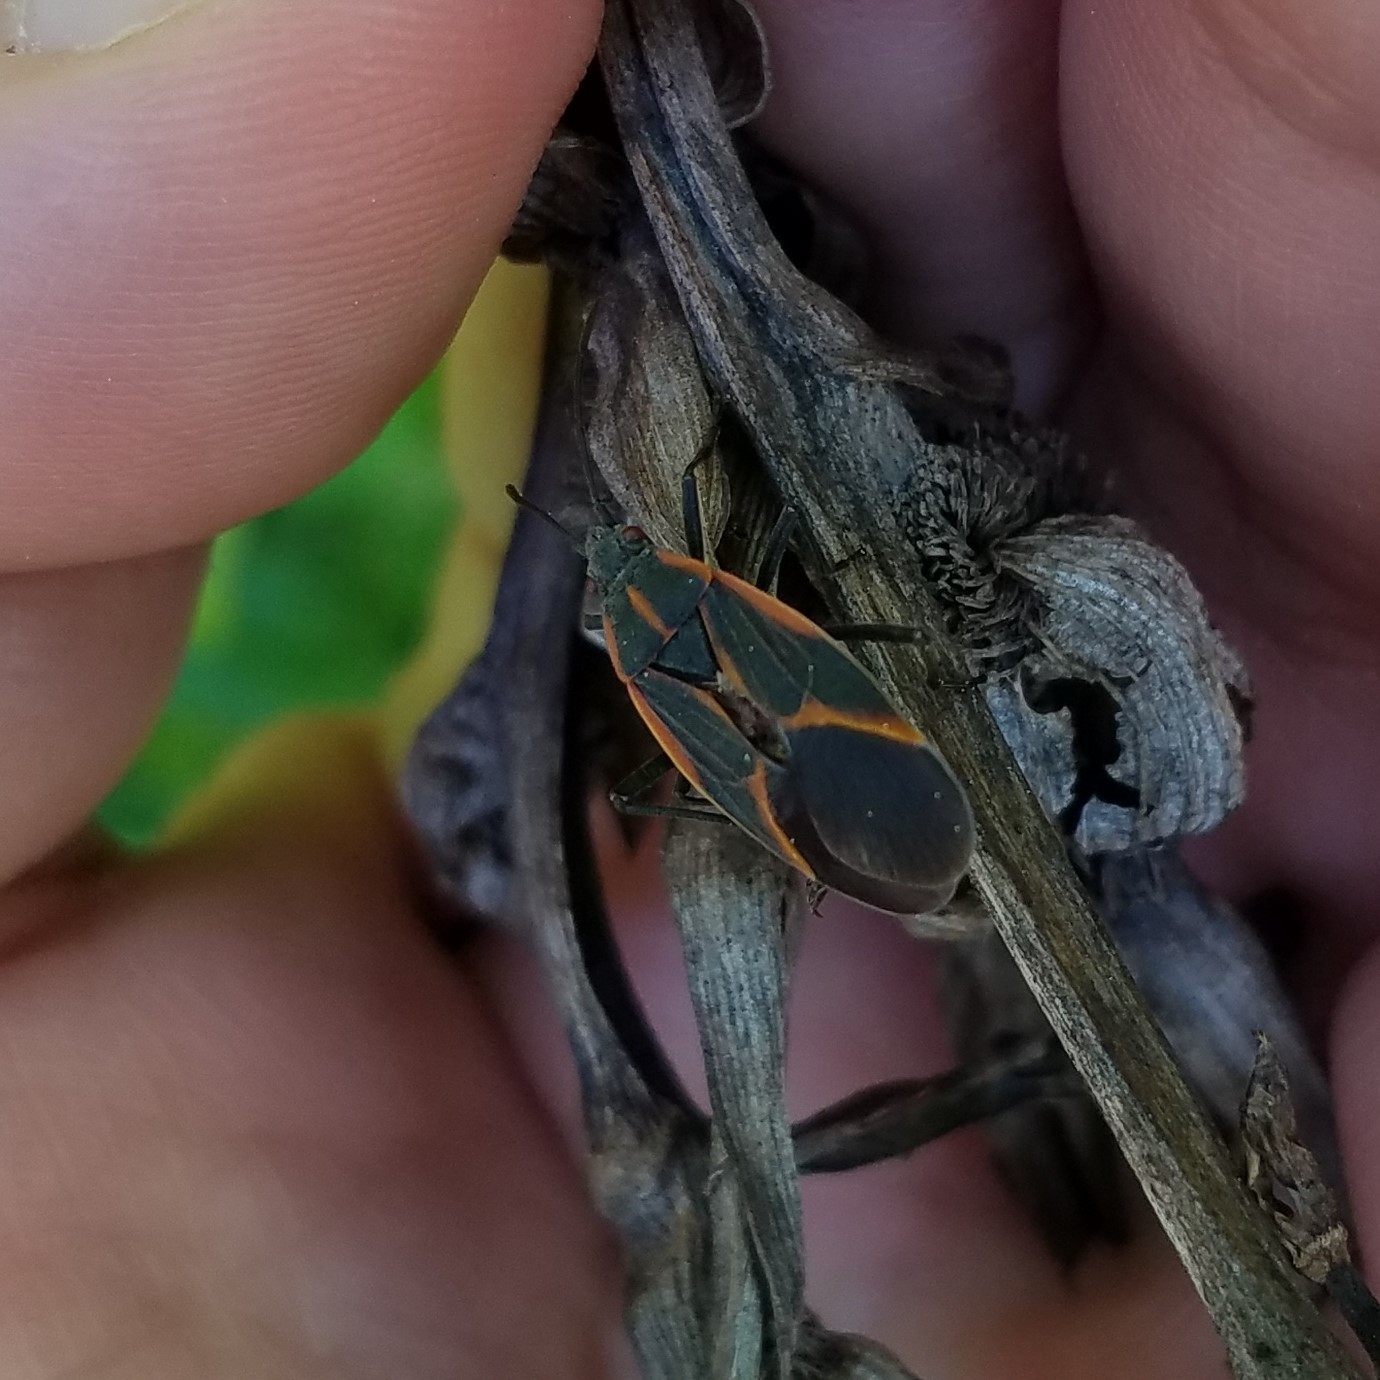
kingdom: Animalia
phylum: Arthropoda
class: Insecta
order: Hemiptera
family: Rhopalidae
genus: Boisea
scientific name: Boisea trivittata
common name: Boxelder bug
